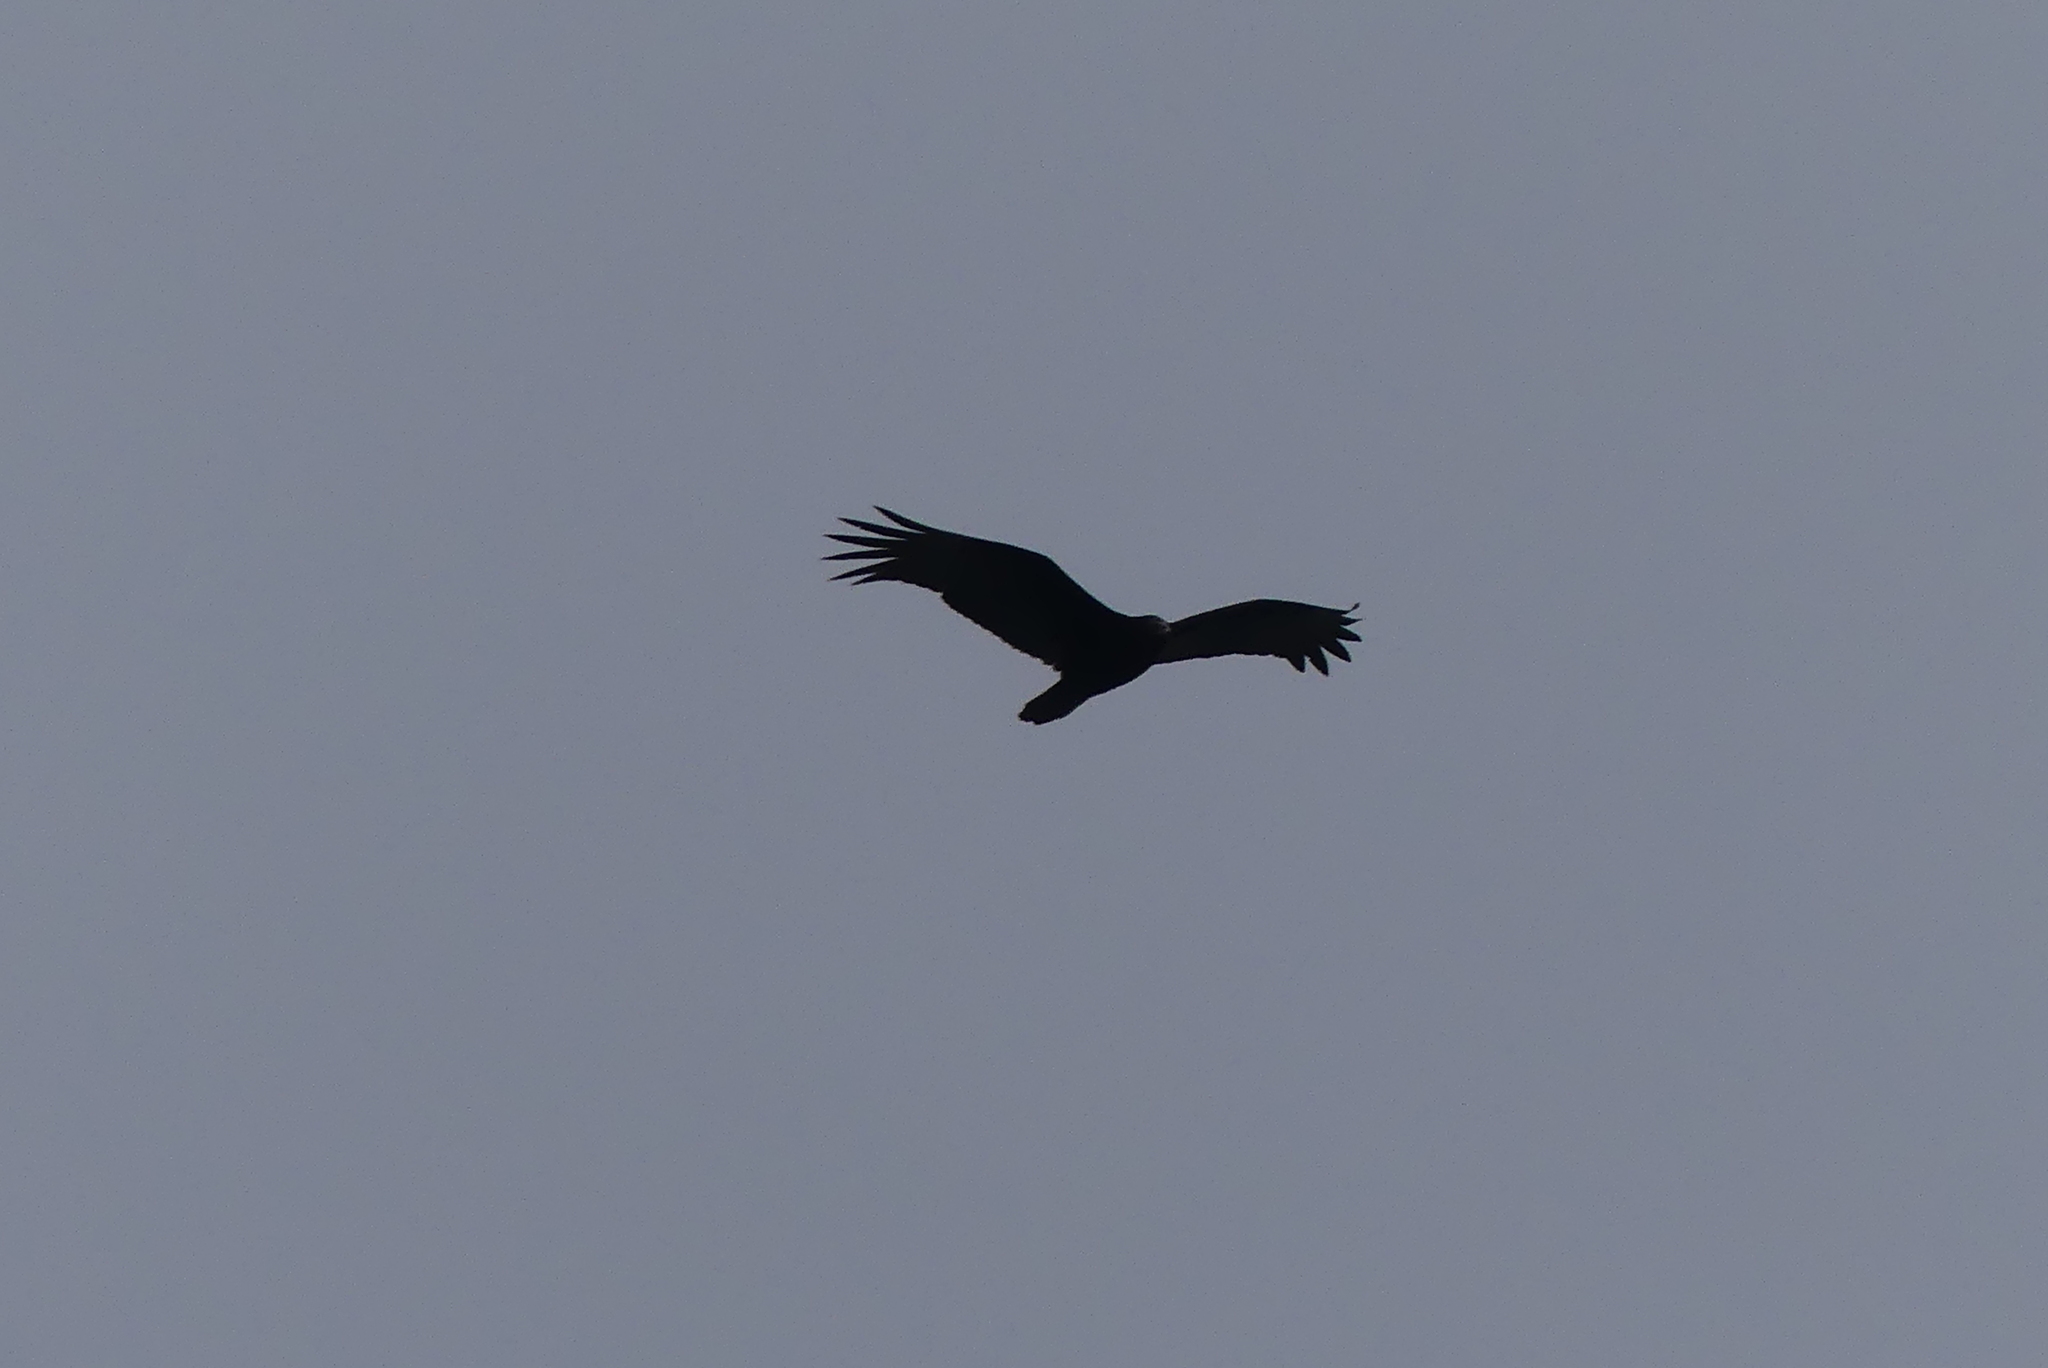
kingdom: Animalia
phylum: Chordata
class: Aves
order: Accipitriformes
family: Cathartidae
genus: Cathartes
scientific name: Cathartes aura
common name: Turkey vulture
